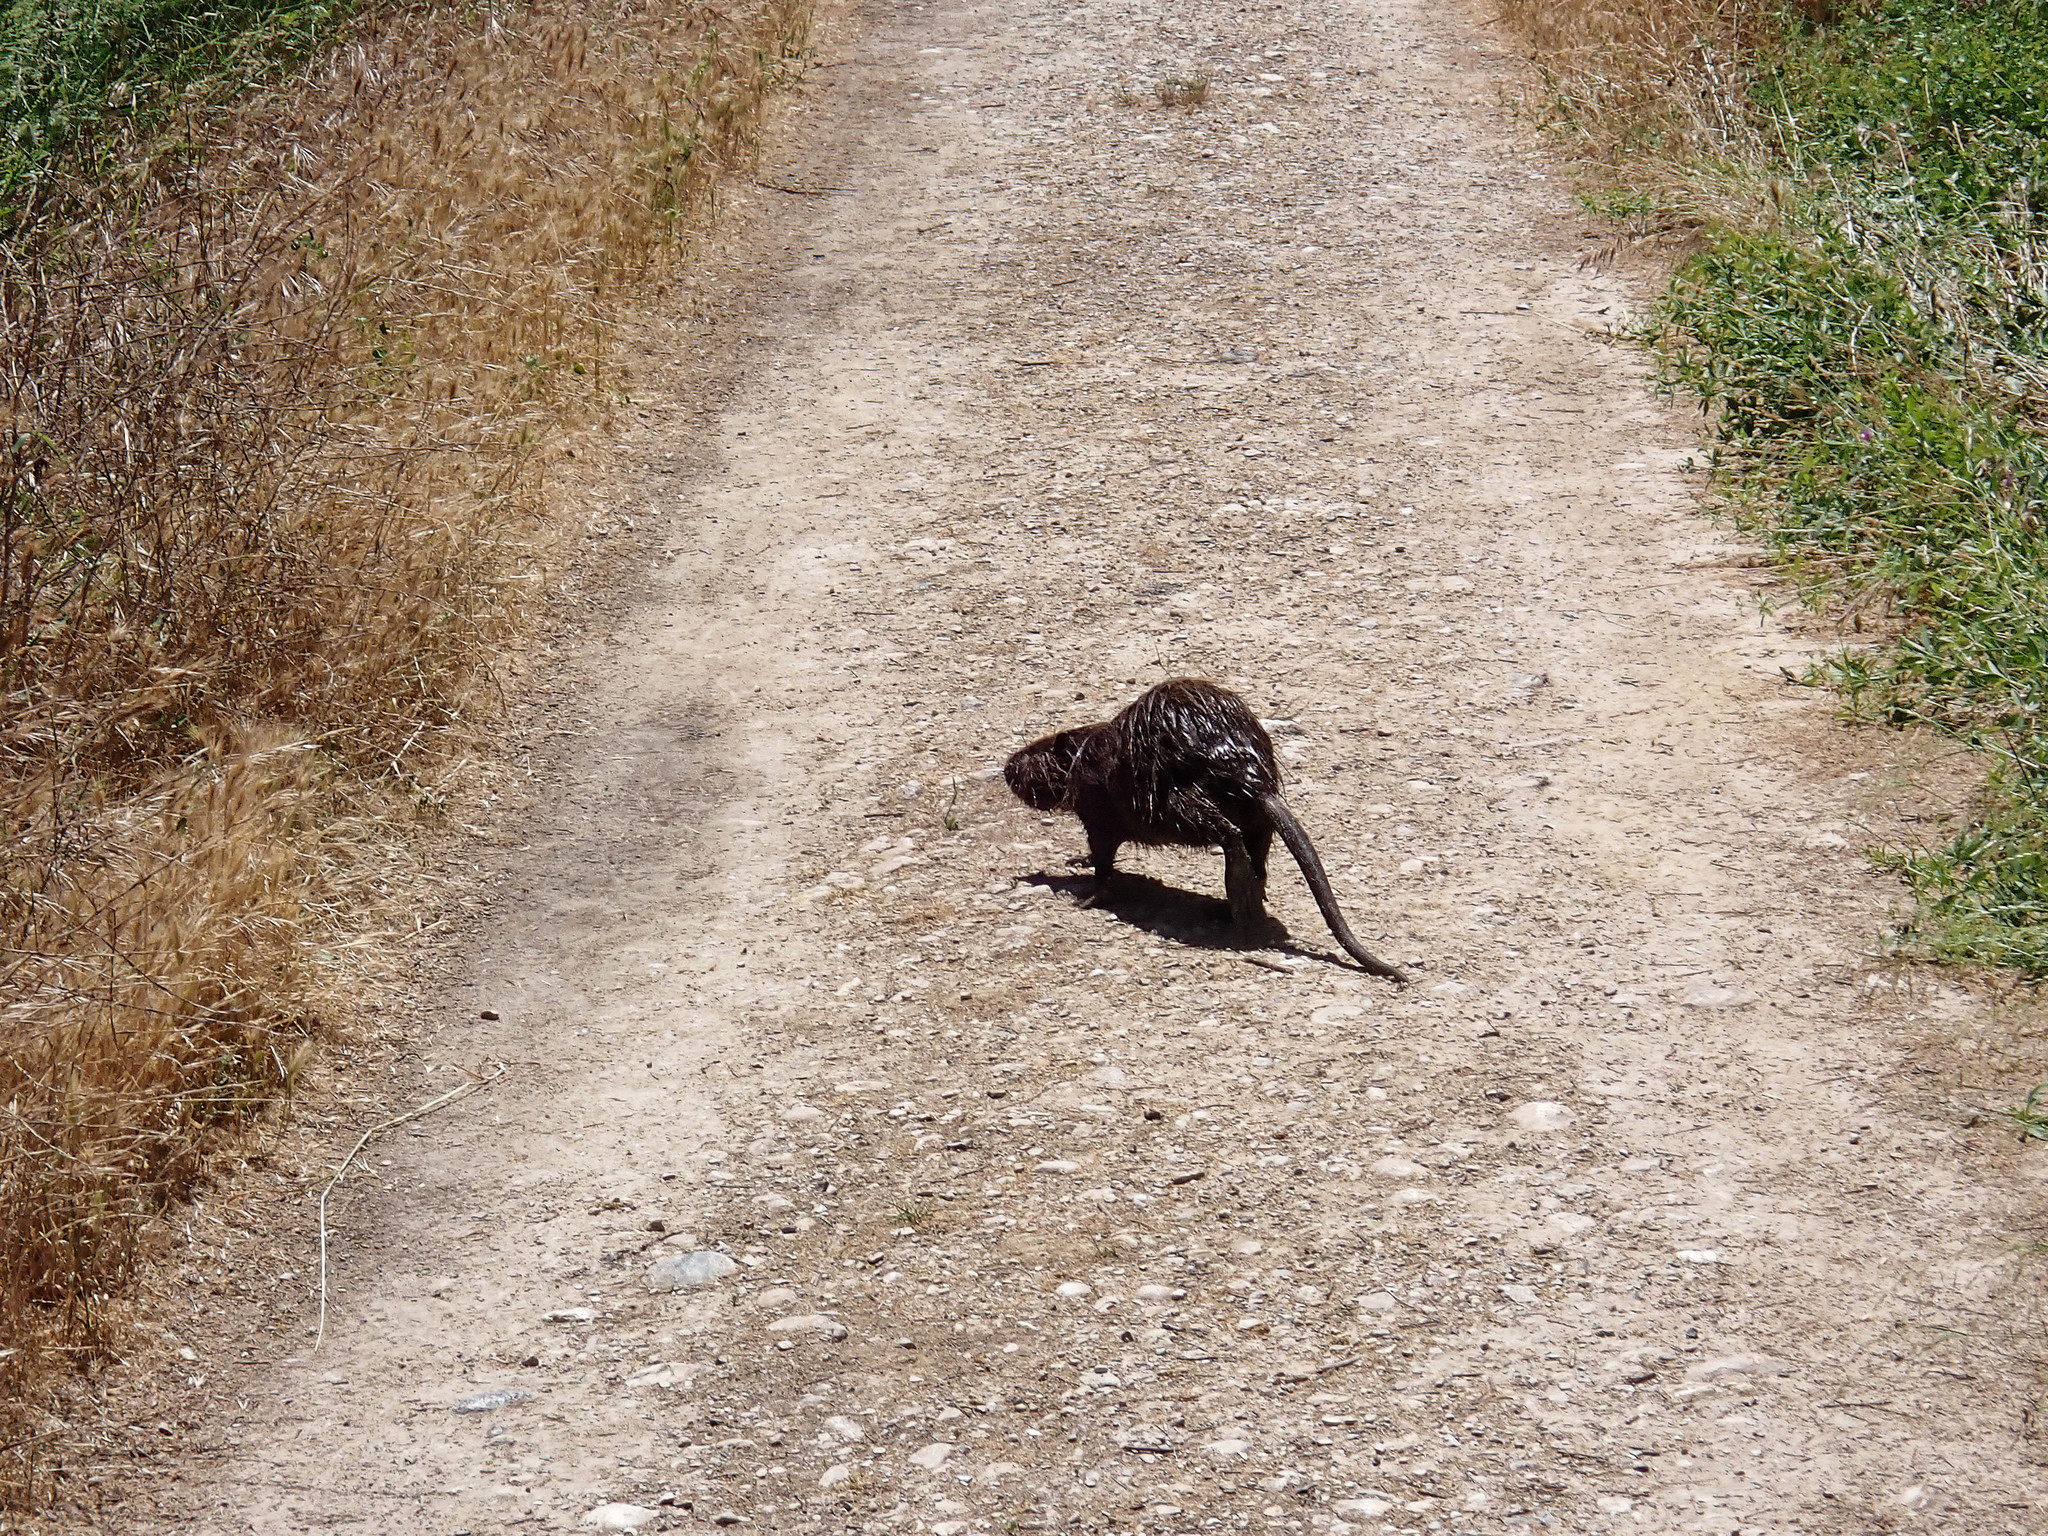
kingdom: Animalia
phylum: Chordata
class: Mammalia
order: Rodentia
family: Myocastoridae
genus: Myocastor
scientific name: Myocastor coypus
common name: Coypu
